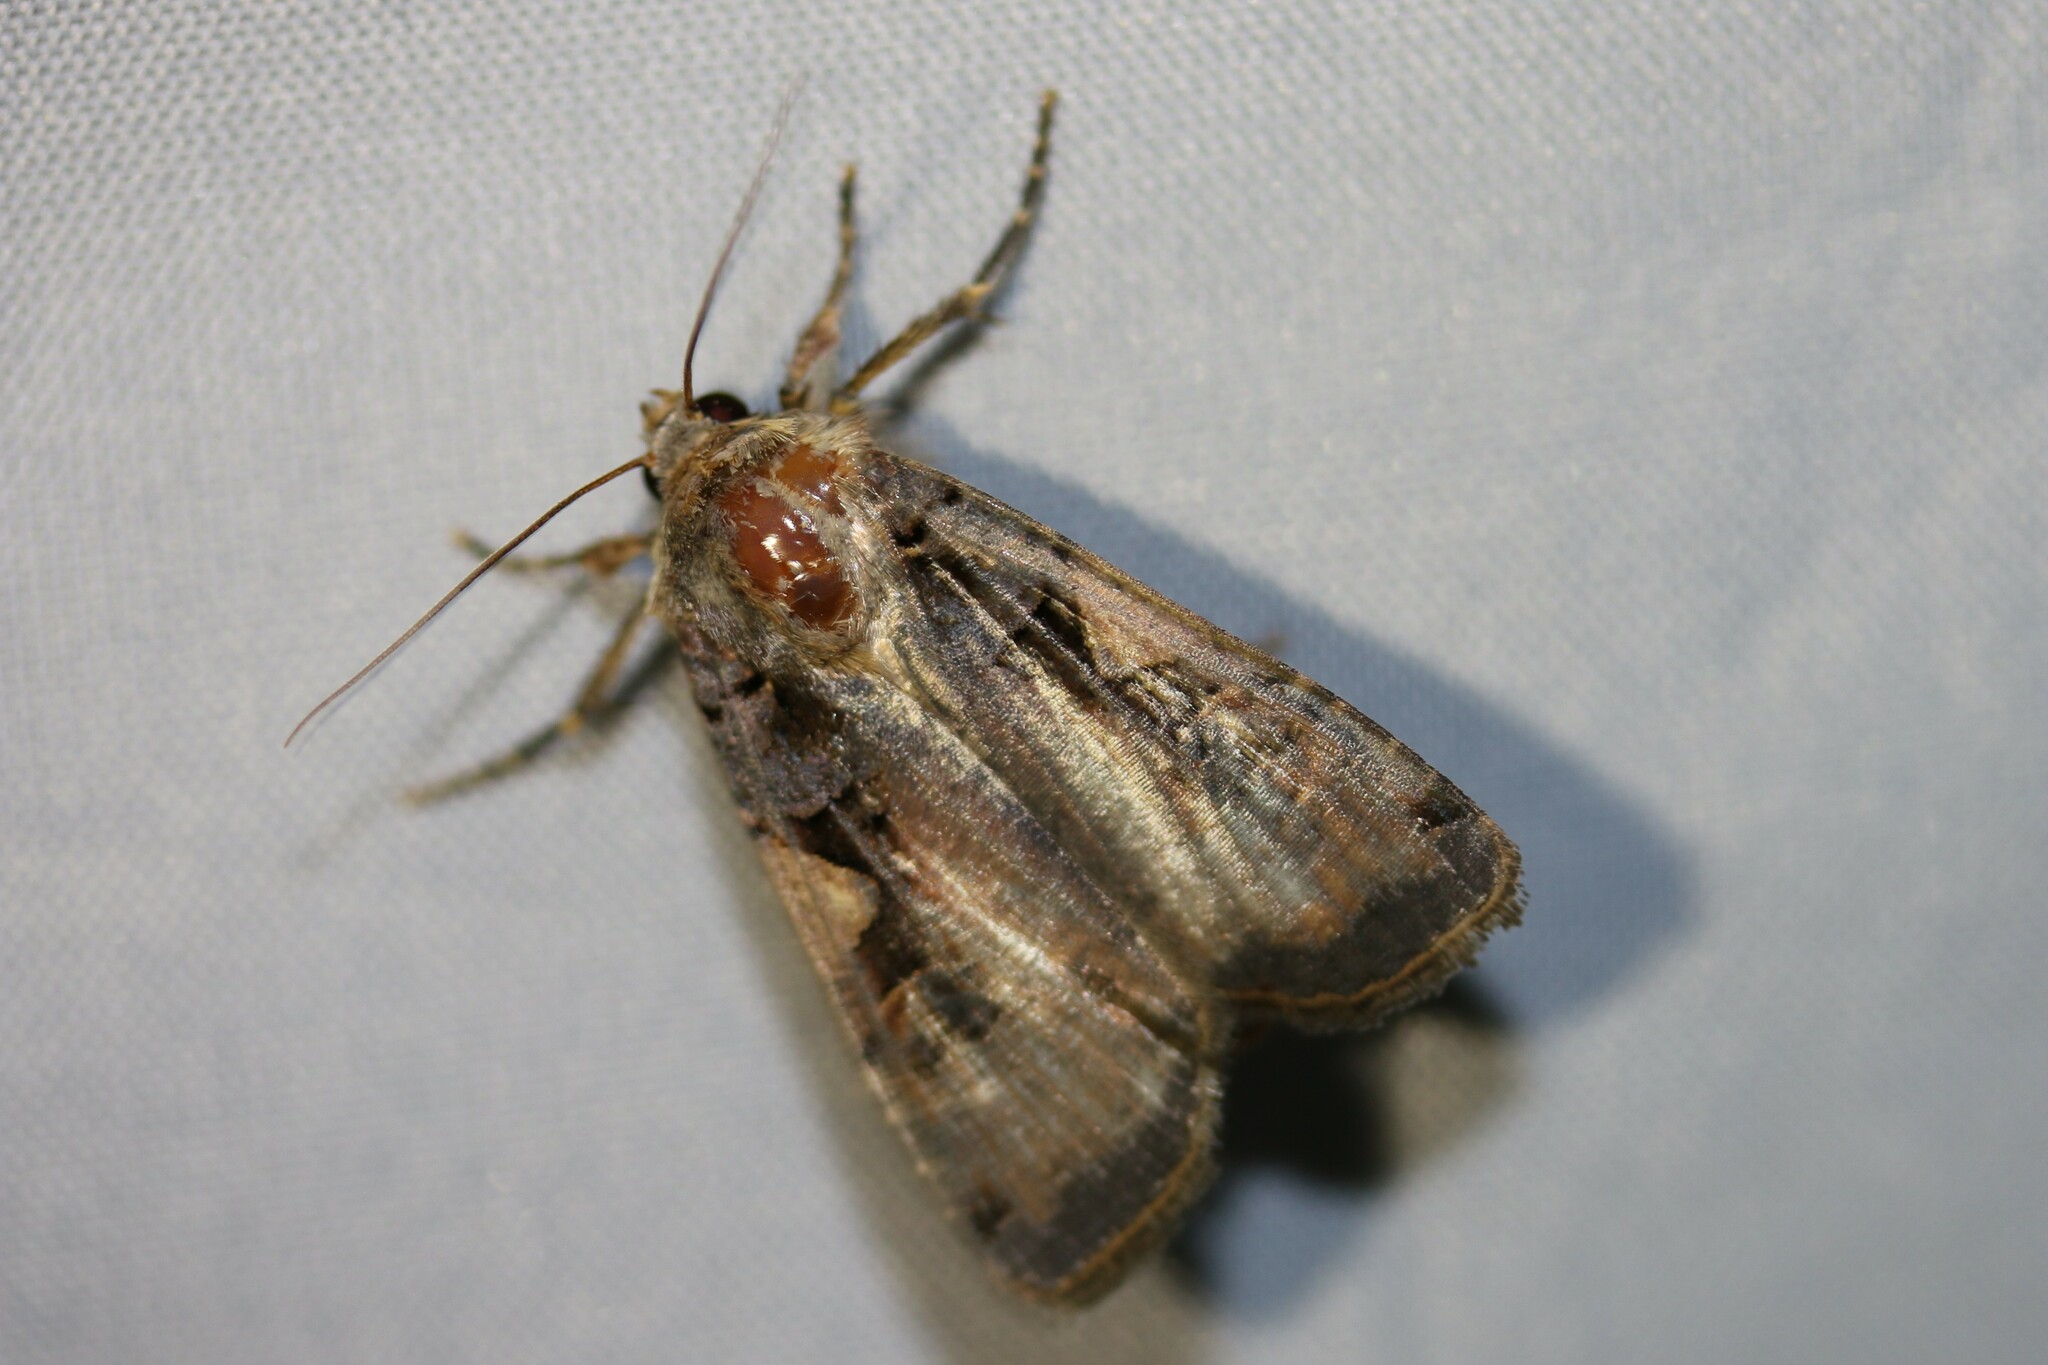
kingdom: Animalia
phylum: Arthropoda
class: Insecta
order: Lepidoptera
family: Noctuidae
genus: Xestia
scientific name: Xestia c-nigrum
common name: Setaceous hebrew character
